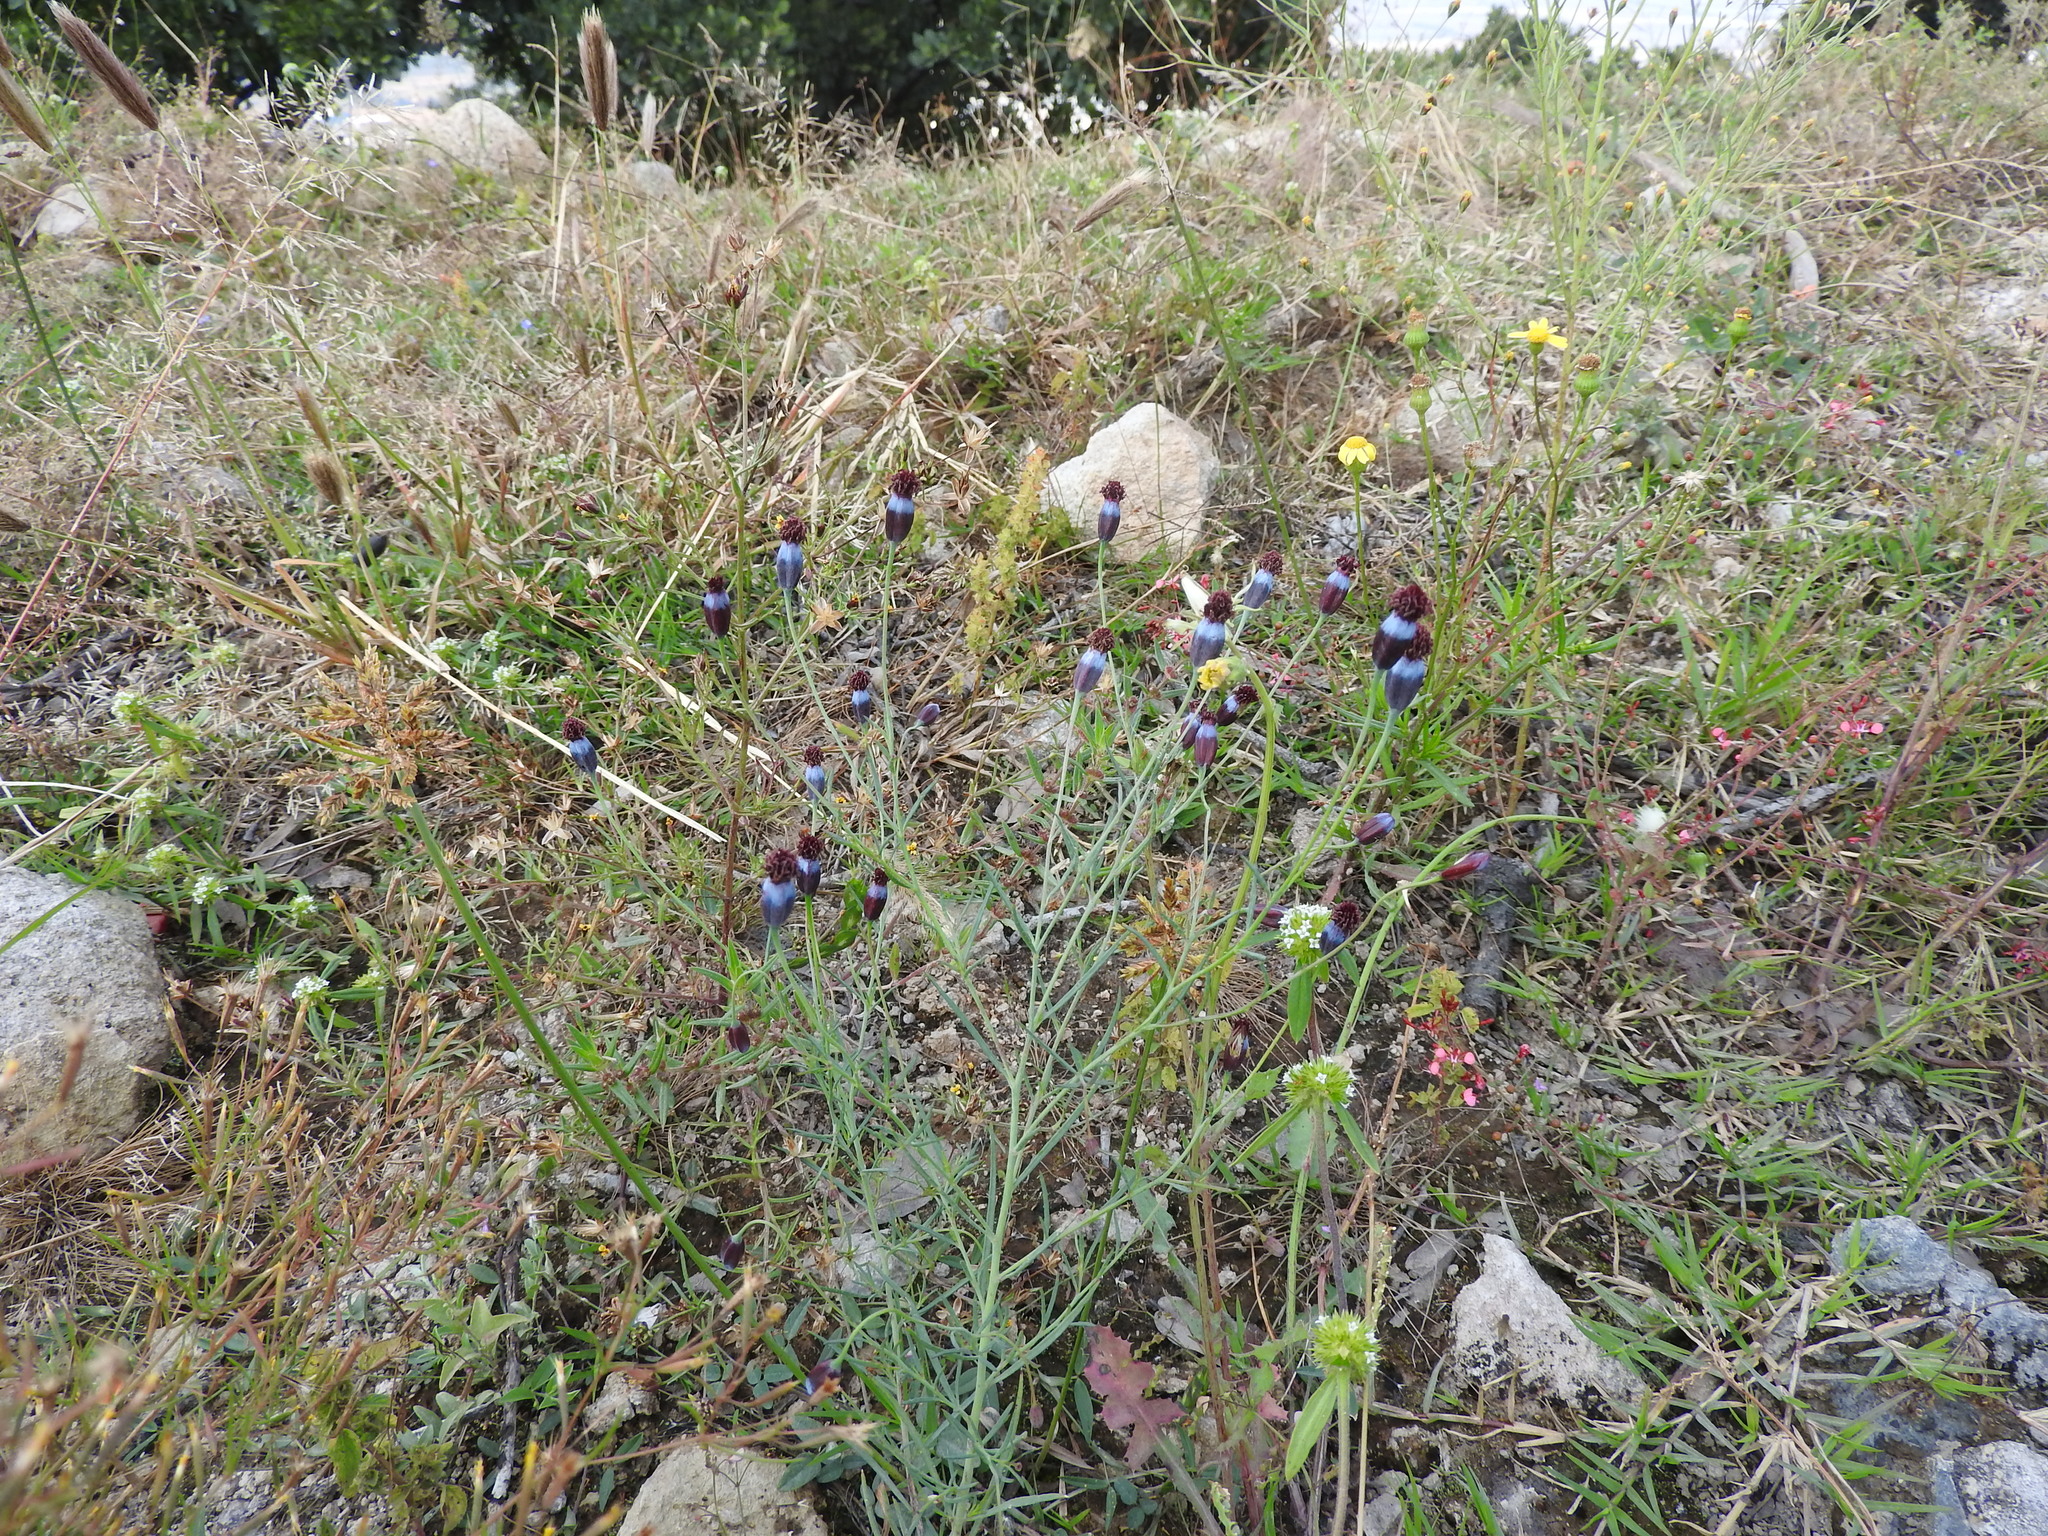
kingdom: Plantae
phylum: Tracheophyta
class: Magnoliopsida
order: Asterales
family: Asteraceae
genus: Porophyllum
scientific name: Porophyllum linaria
